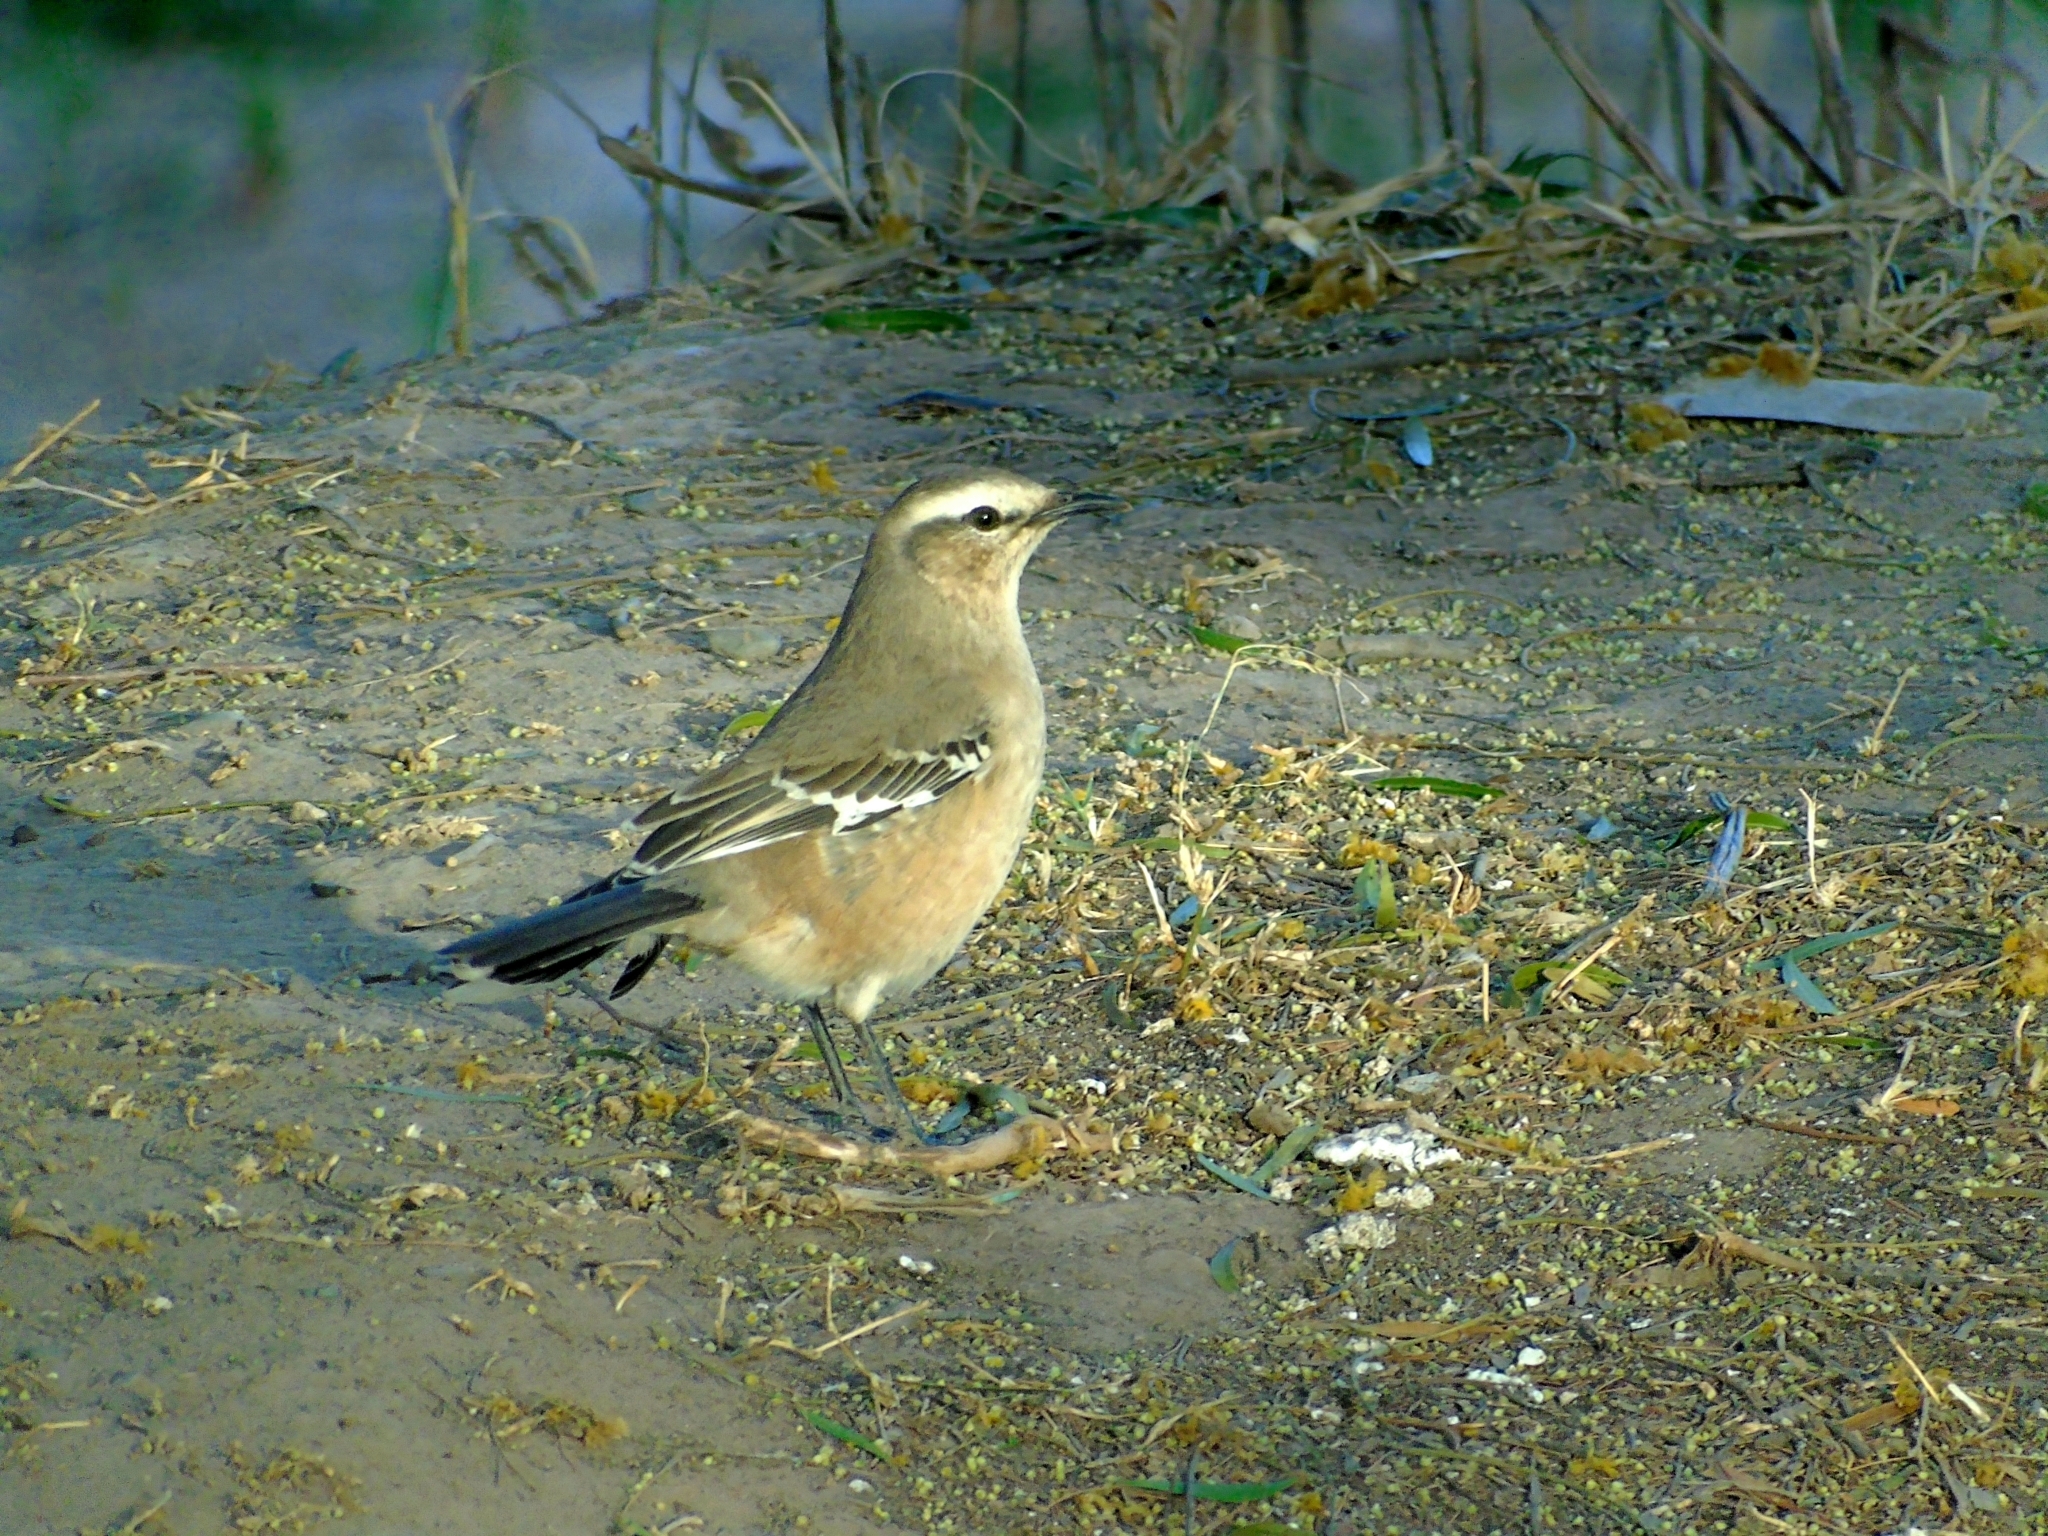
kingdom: Animalia
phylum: Chordata
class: Aves
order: Passeriformes
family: Mimidae
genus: Mimus
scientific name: Mimus patagonicus
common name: Patagonian mockingbird
